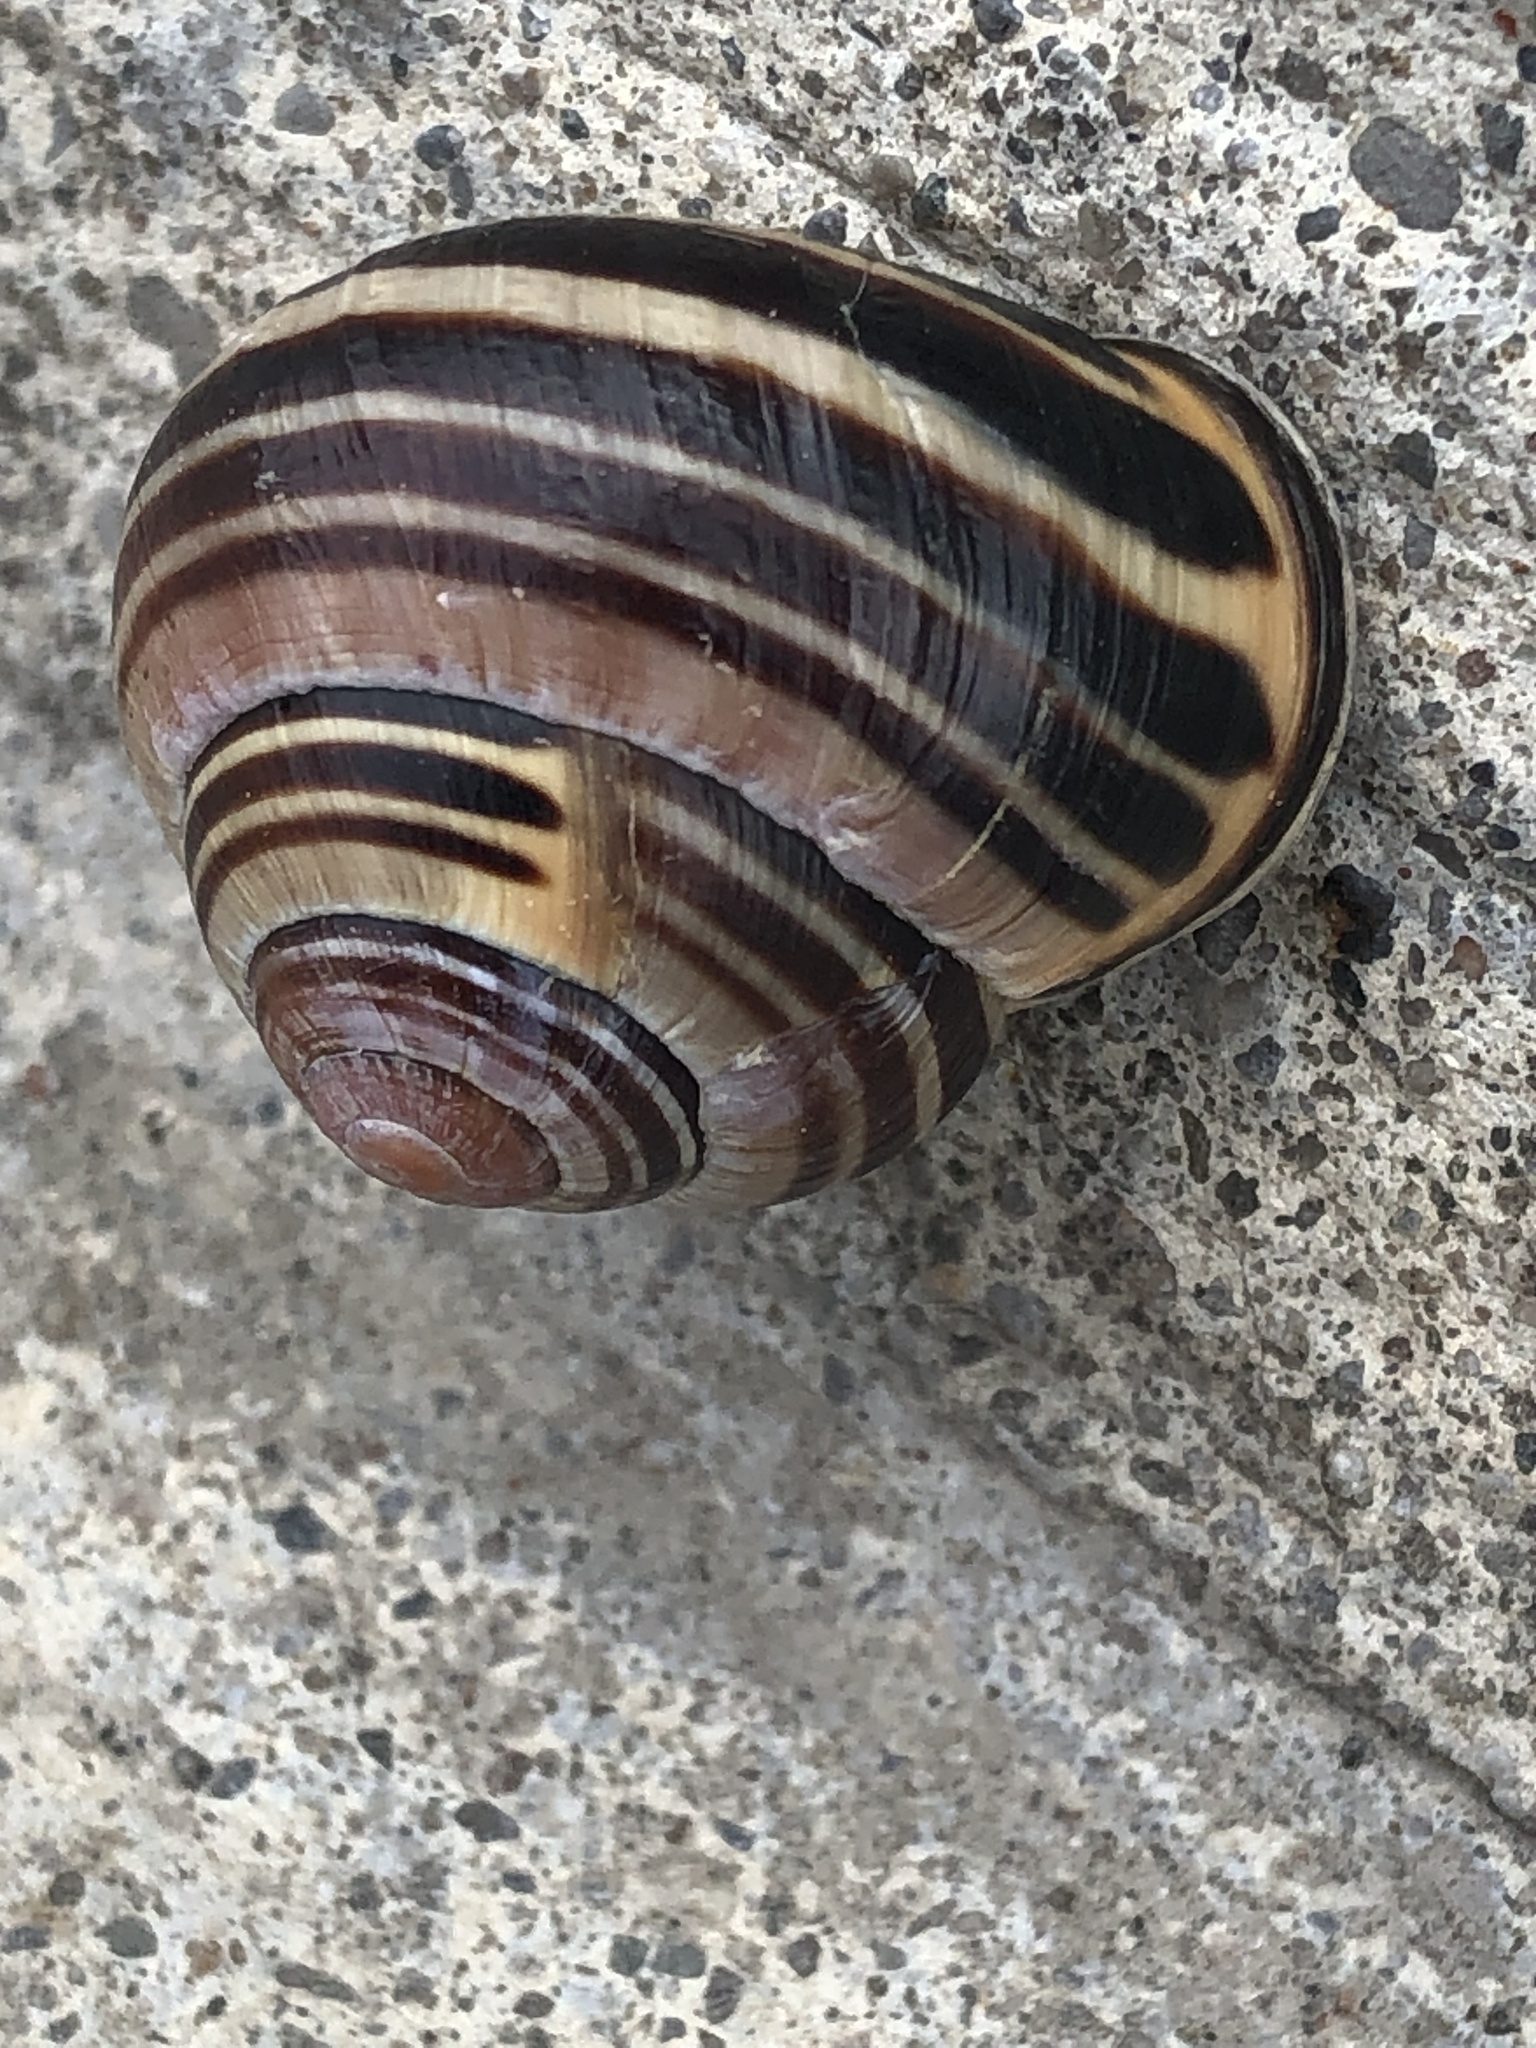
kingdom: Animalia
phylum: Mollusca
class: Gastropoda
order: Stylommatophora
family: Helicidae
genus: Cepaea
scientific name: Cepaea nemoralis
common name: Grovesnail
